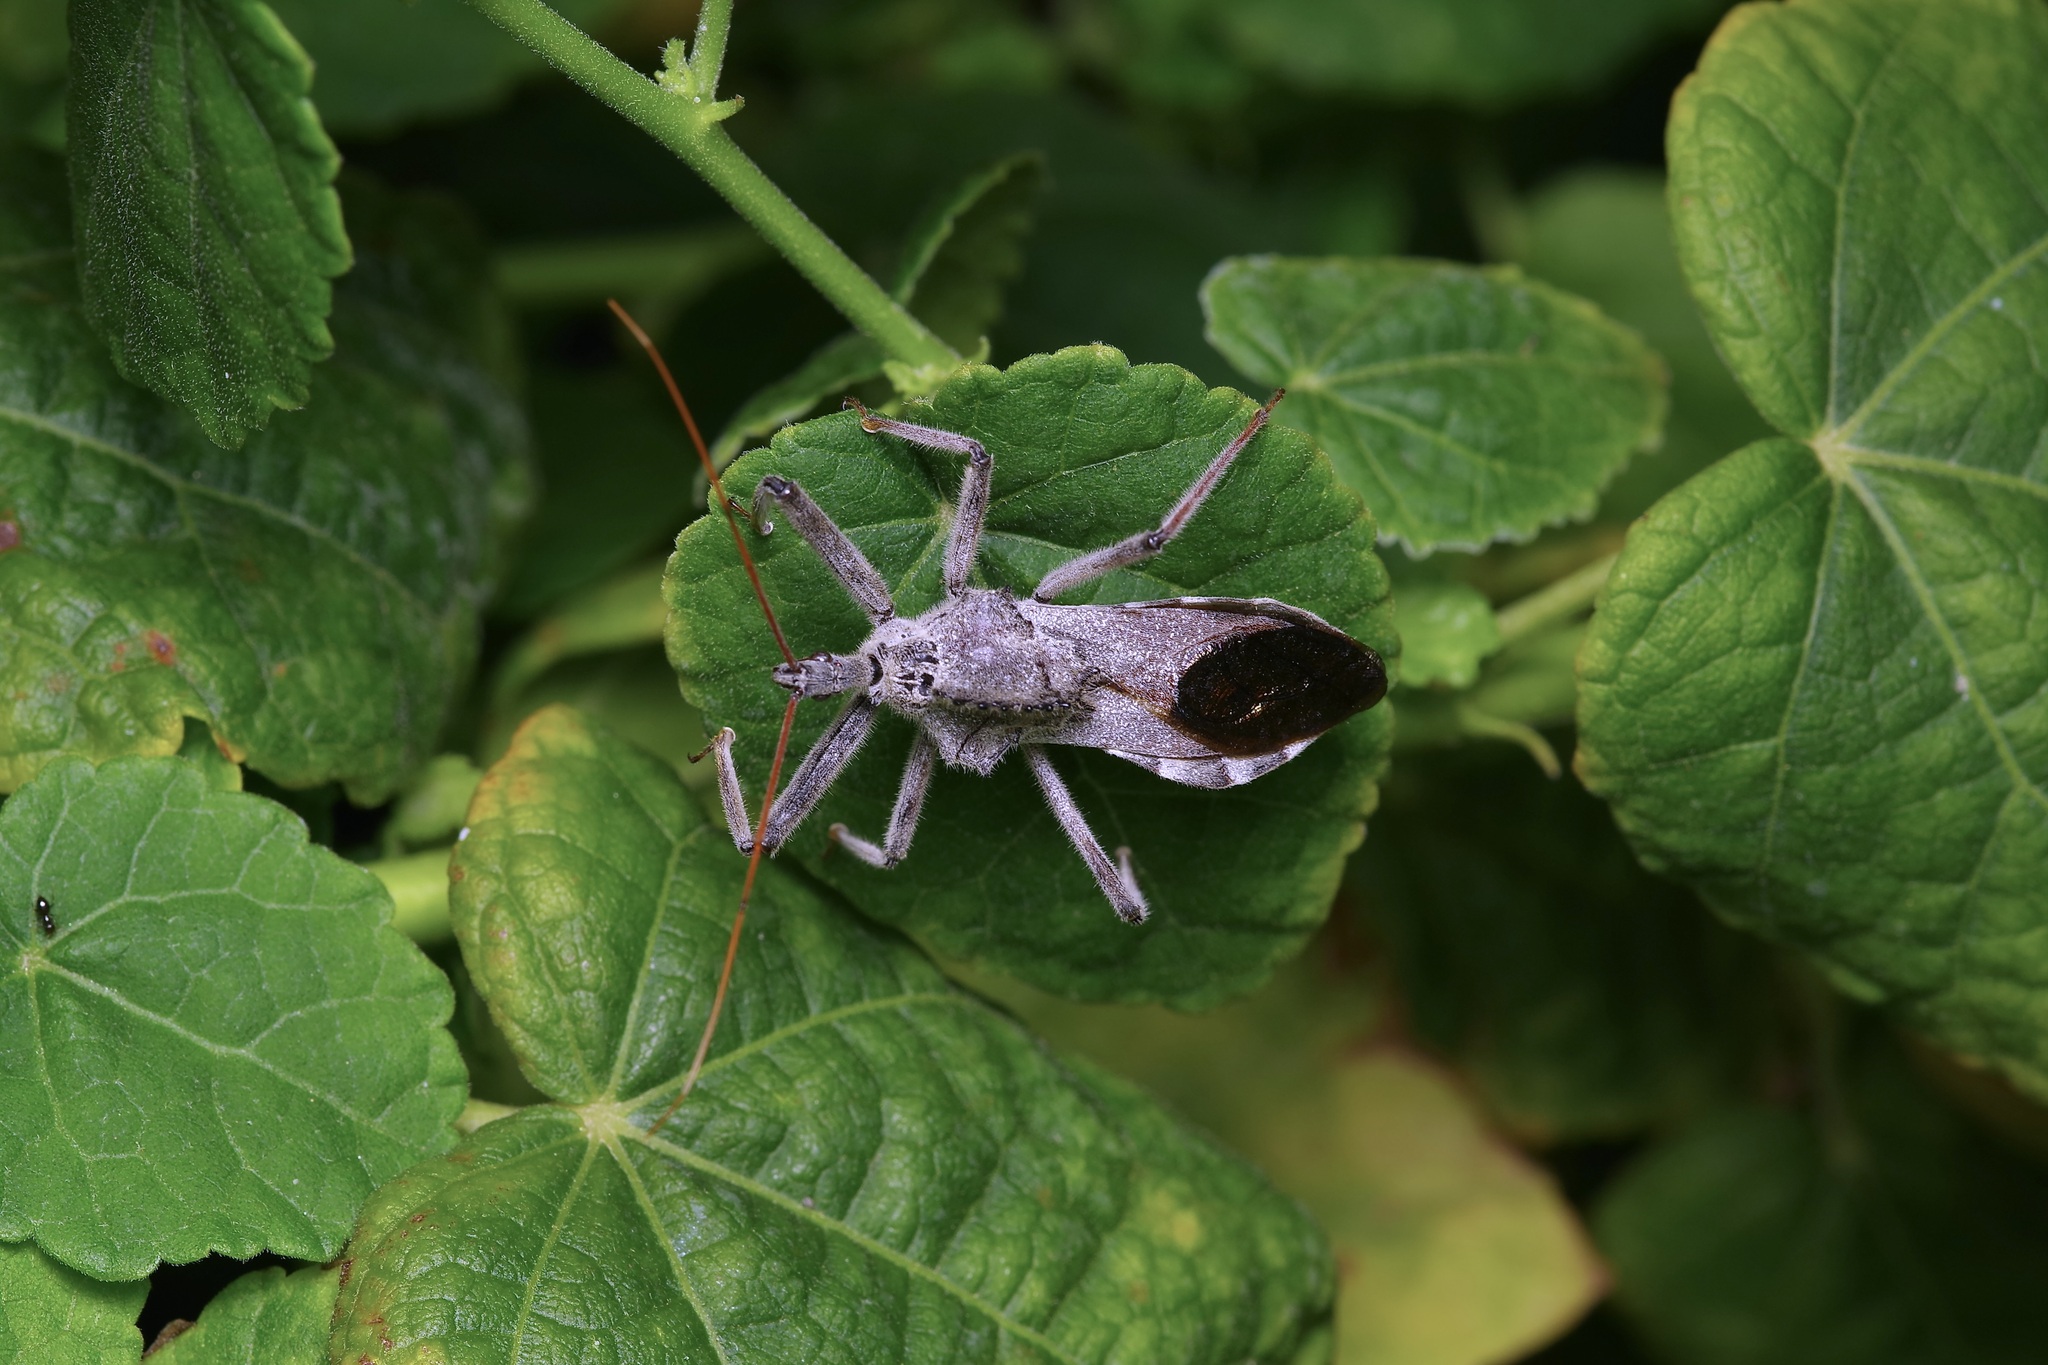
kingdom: Animalia
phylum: Arthropoda
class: Insecta
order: Hemiptera
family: Reduviidae
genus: Arilus
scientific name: Arilus cristatus
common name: North american wheel bug
